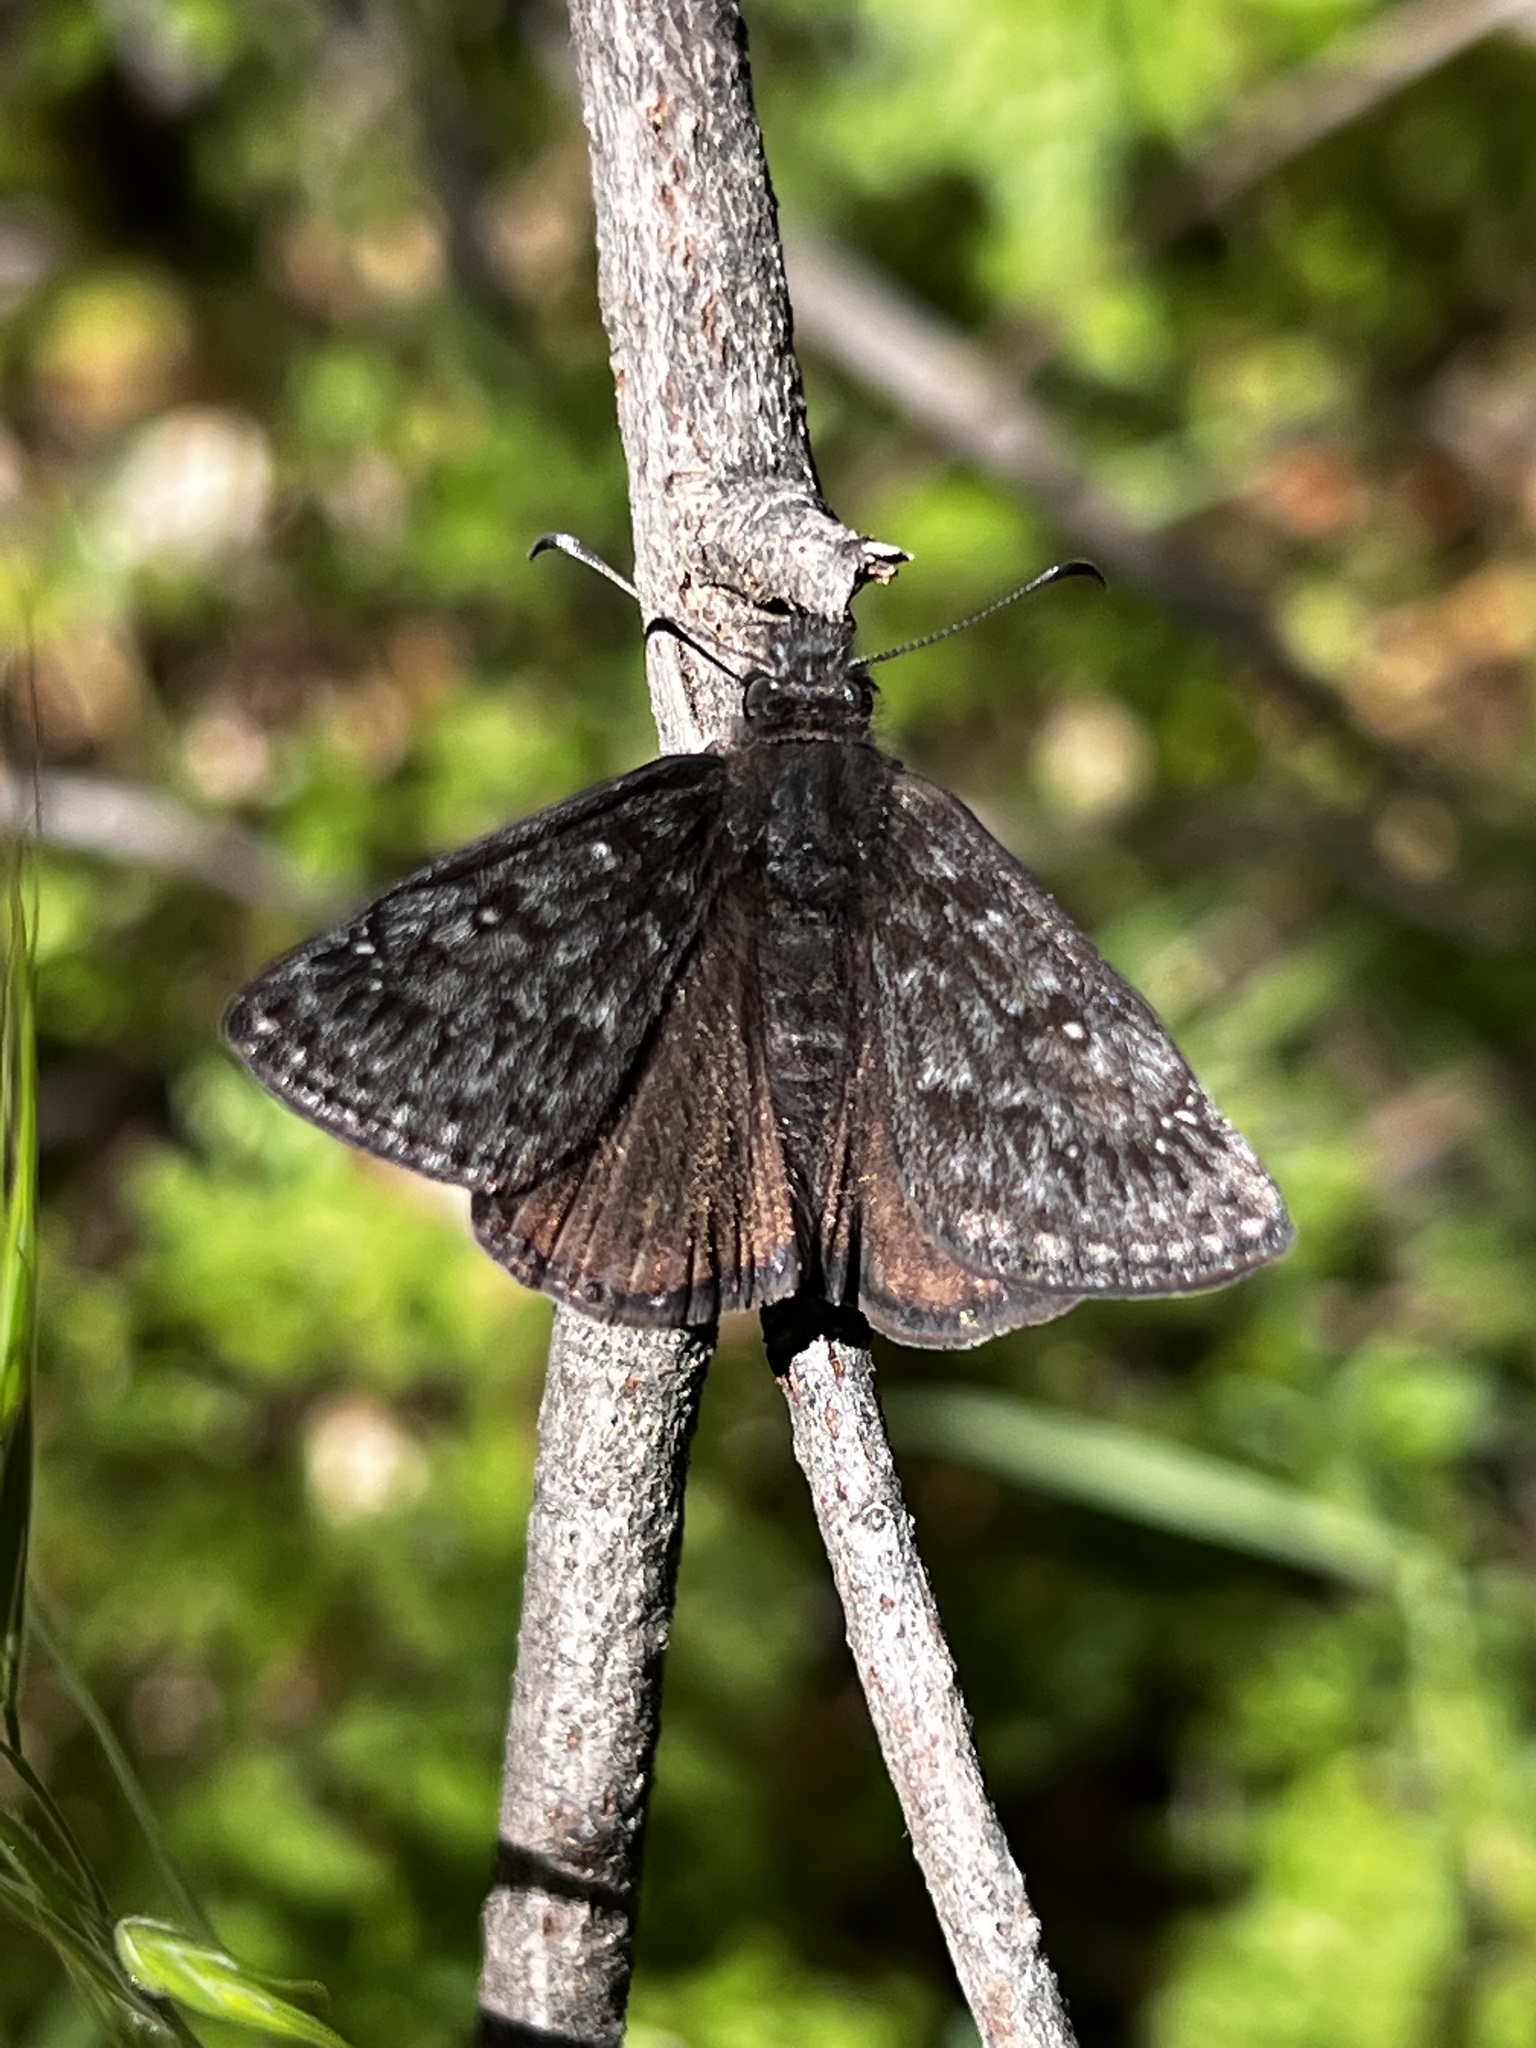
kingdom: Animalia
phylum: Arthropoda
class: Insecta
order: Lepidoptera
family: Hesperiidae
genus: Erynnis
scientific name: Erynnis propertius
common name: Propertius duskywing
